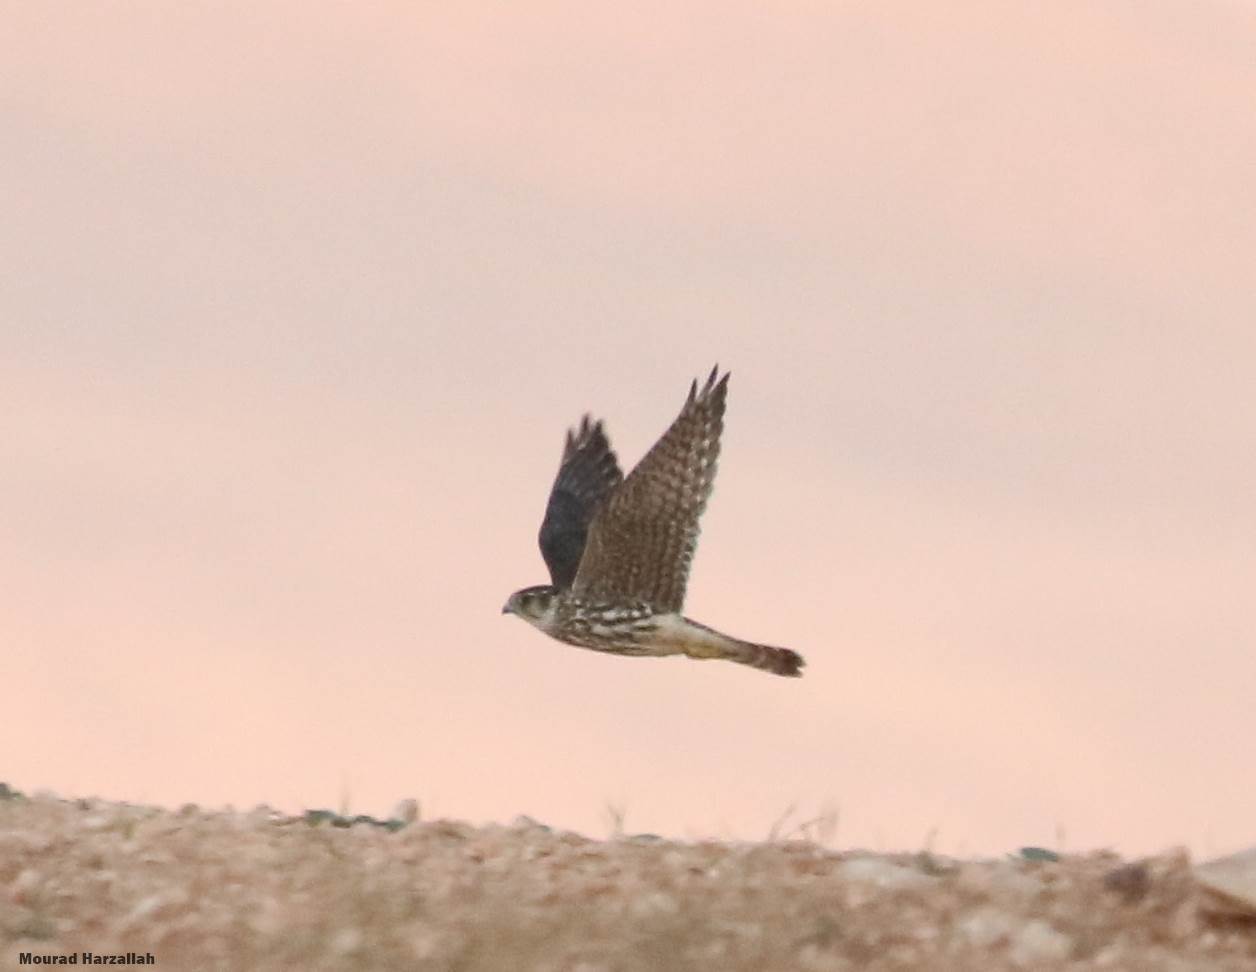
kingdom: Animalia
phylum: Chordata
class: Aves
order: Falconiformes
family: Falconidae
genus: Falco
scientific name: Falco columbarius
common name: Merlin
